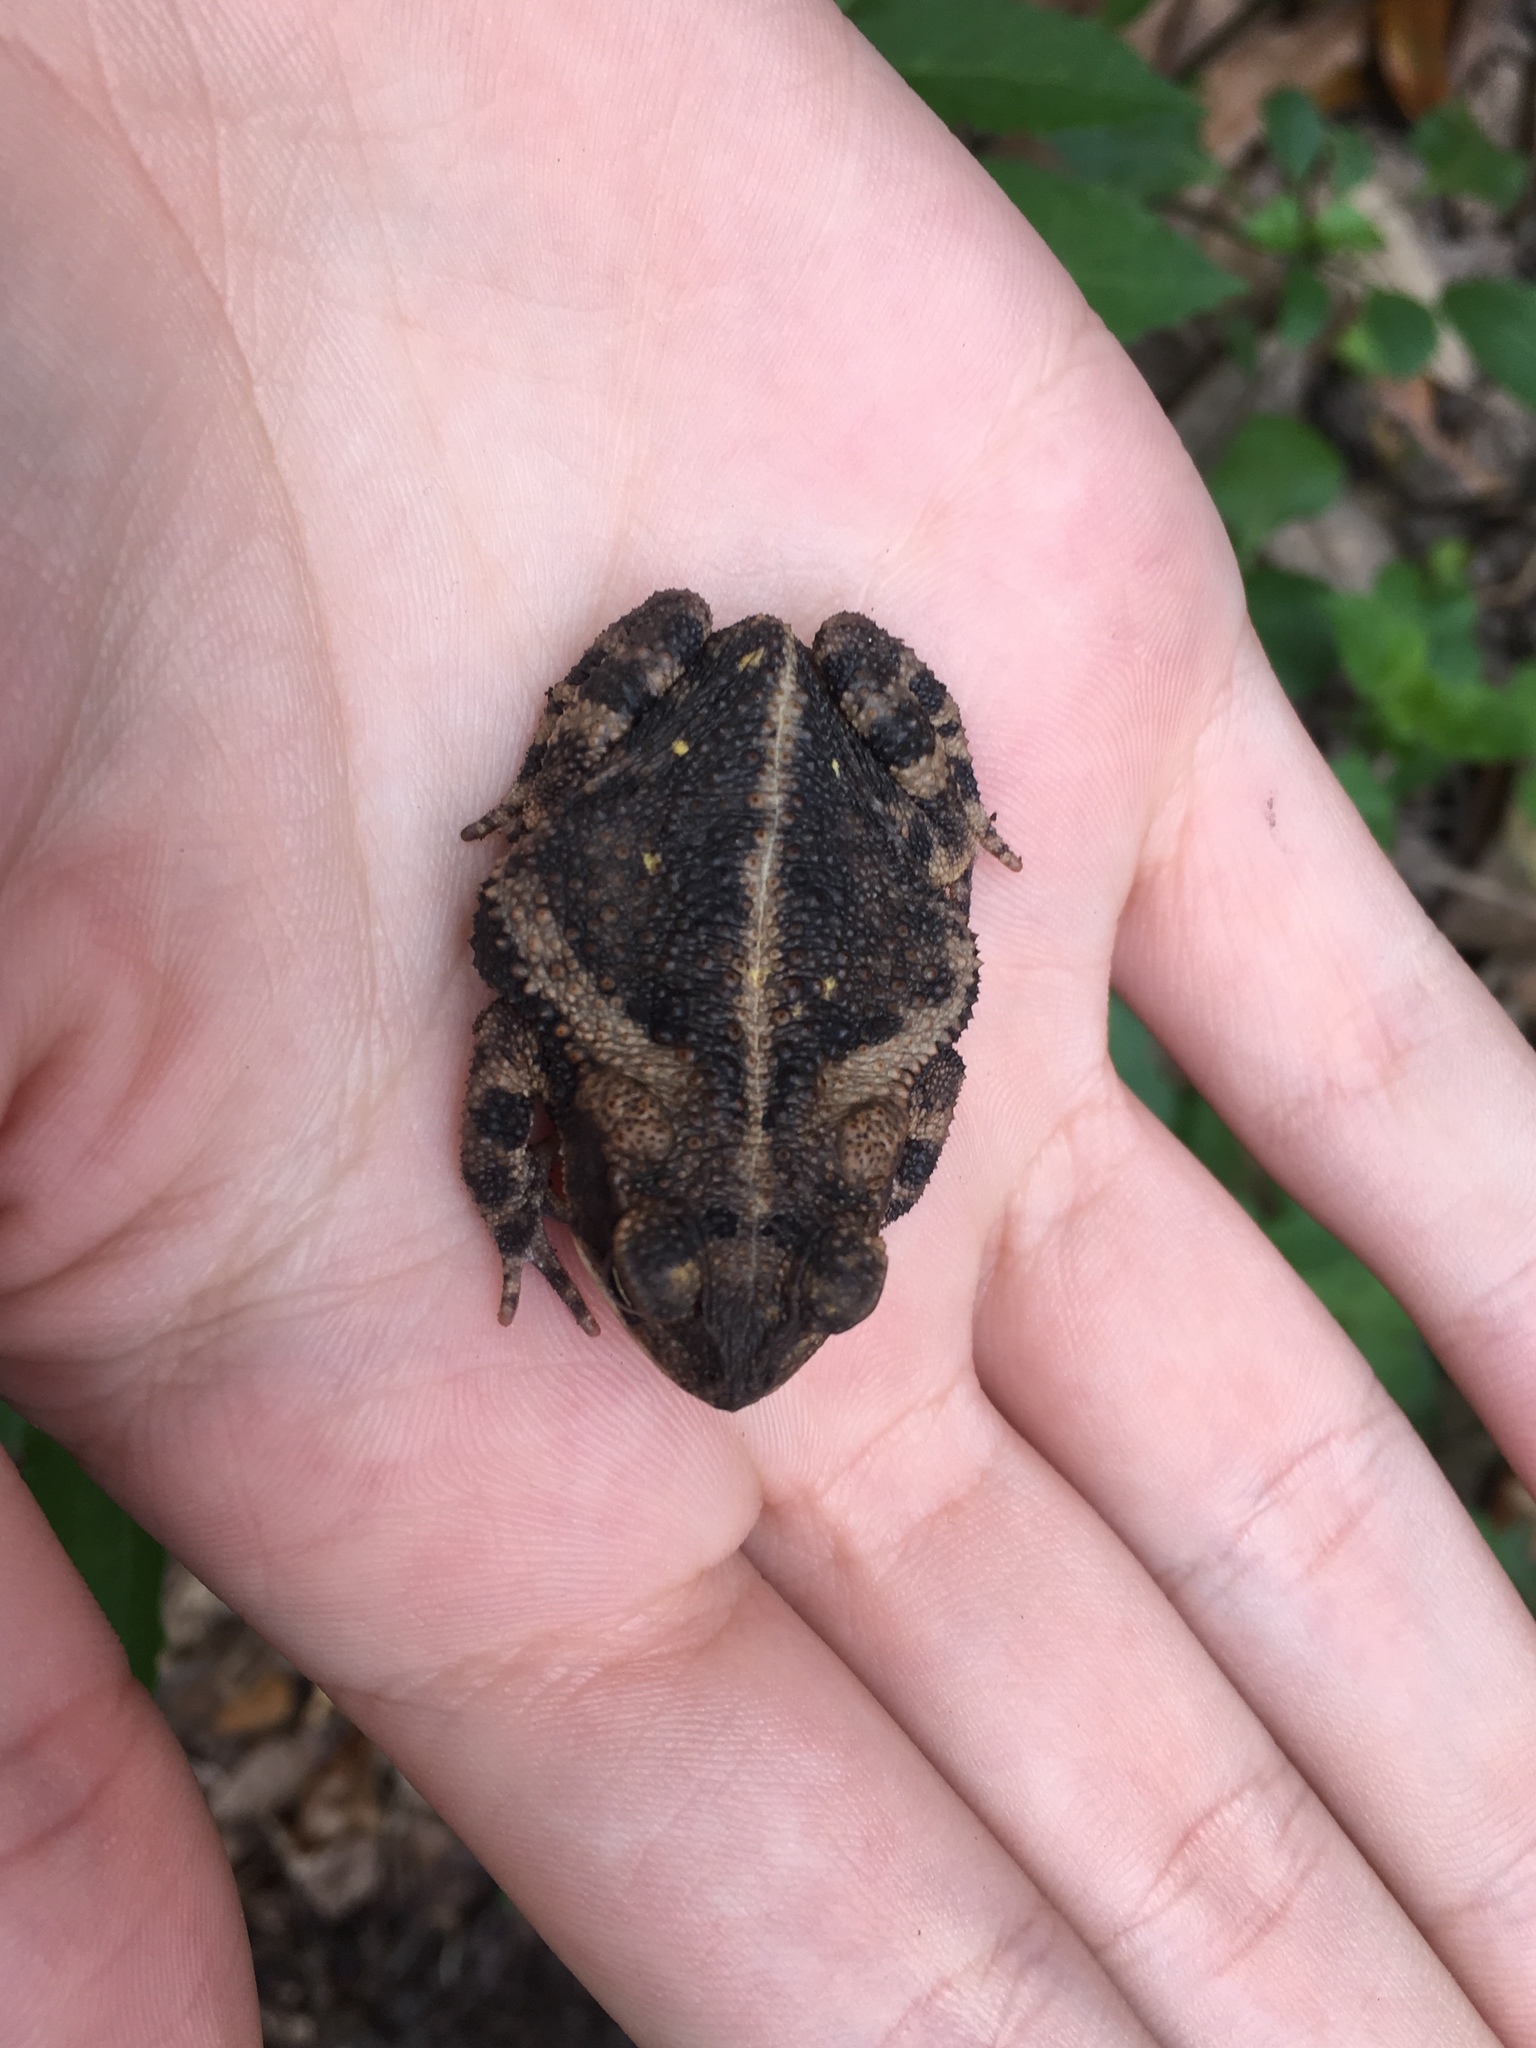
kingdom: Animalia
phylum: Chordata
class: Amphibia
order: Anura
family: Bufonidae
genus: Incilius
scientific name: Incilius nebulifer
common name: Gulf coast toad
